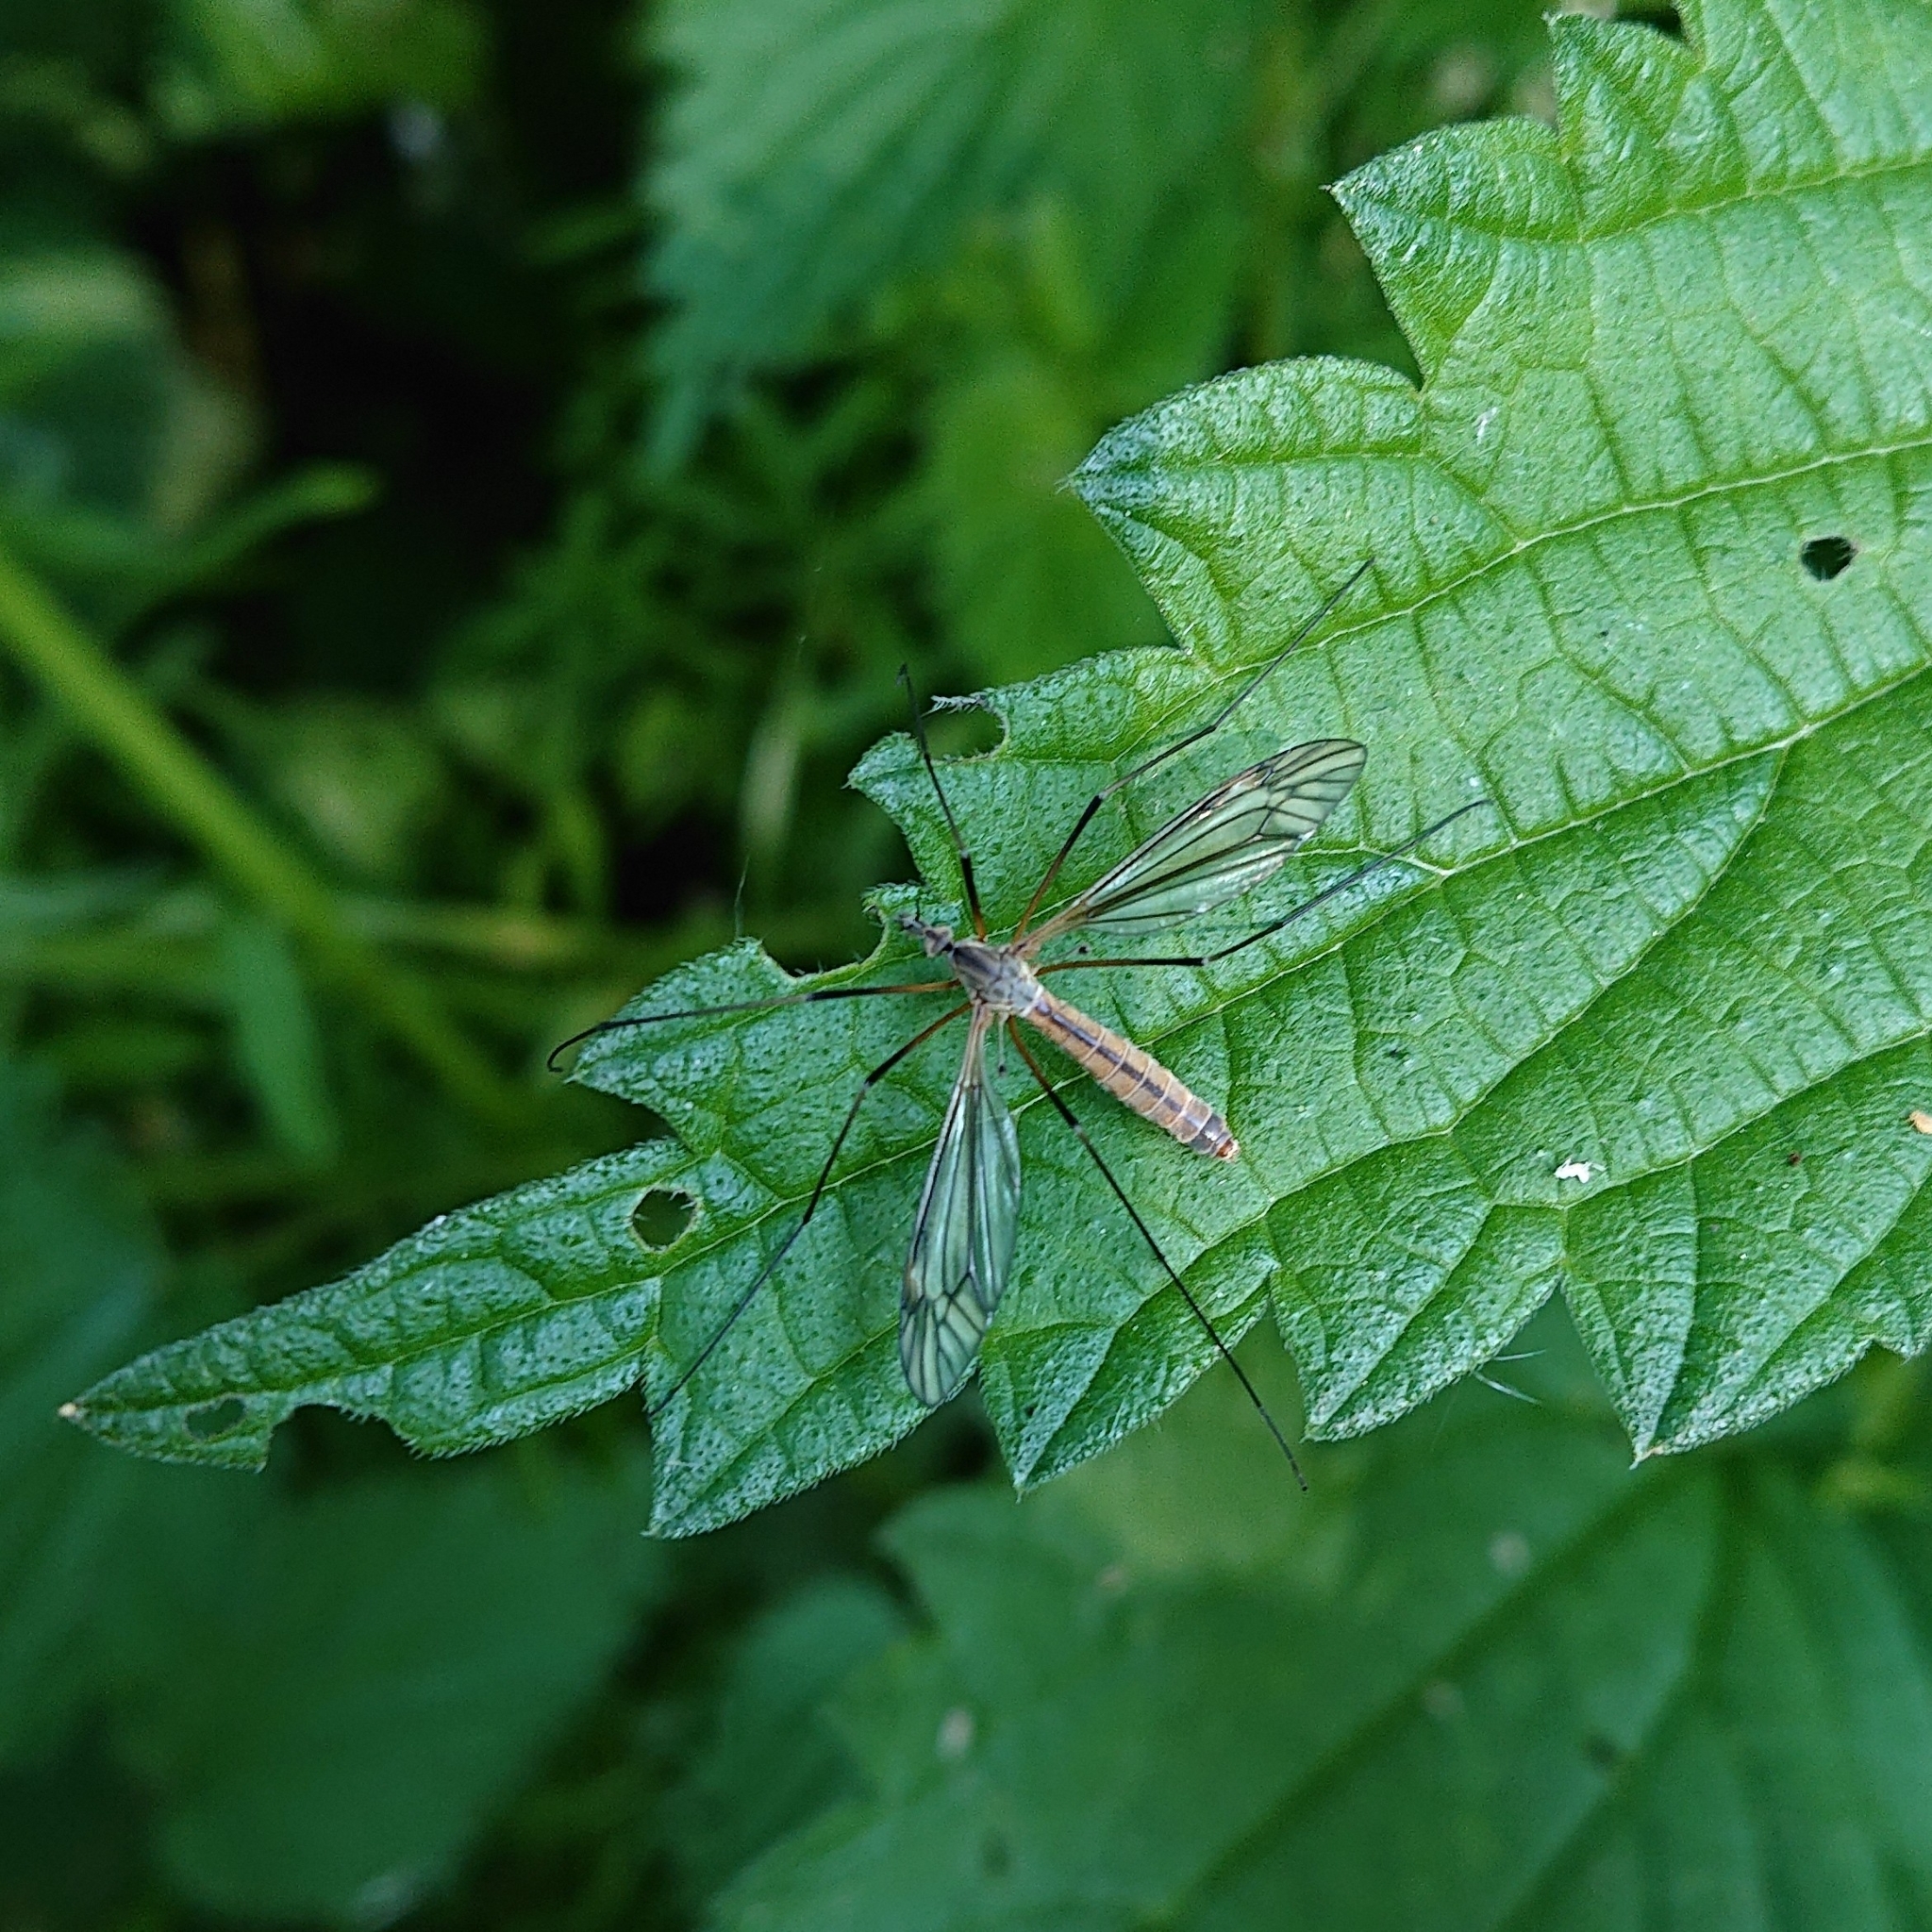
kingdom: Animalia
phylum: Arthropoda
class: Insecta
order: Diptera
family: Tipulidae
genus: Tipula
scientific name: Tipula vernalis
